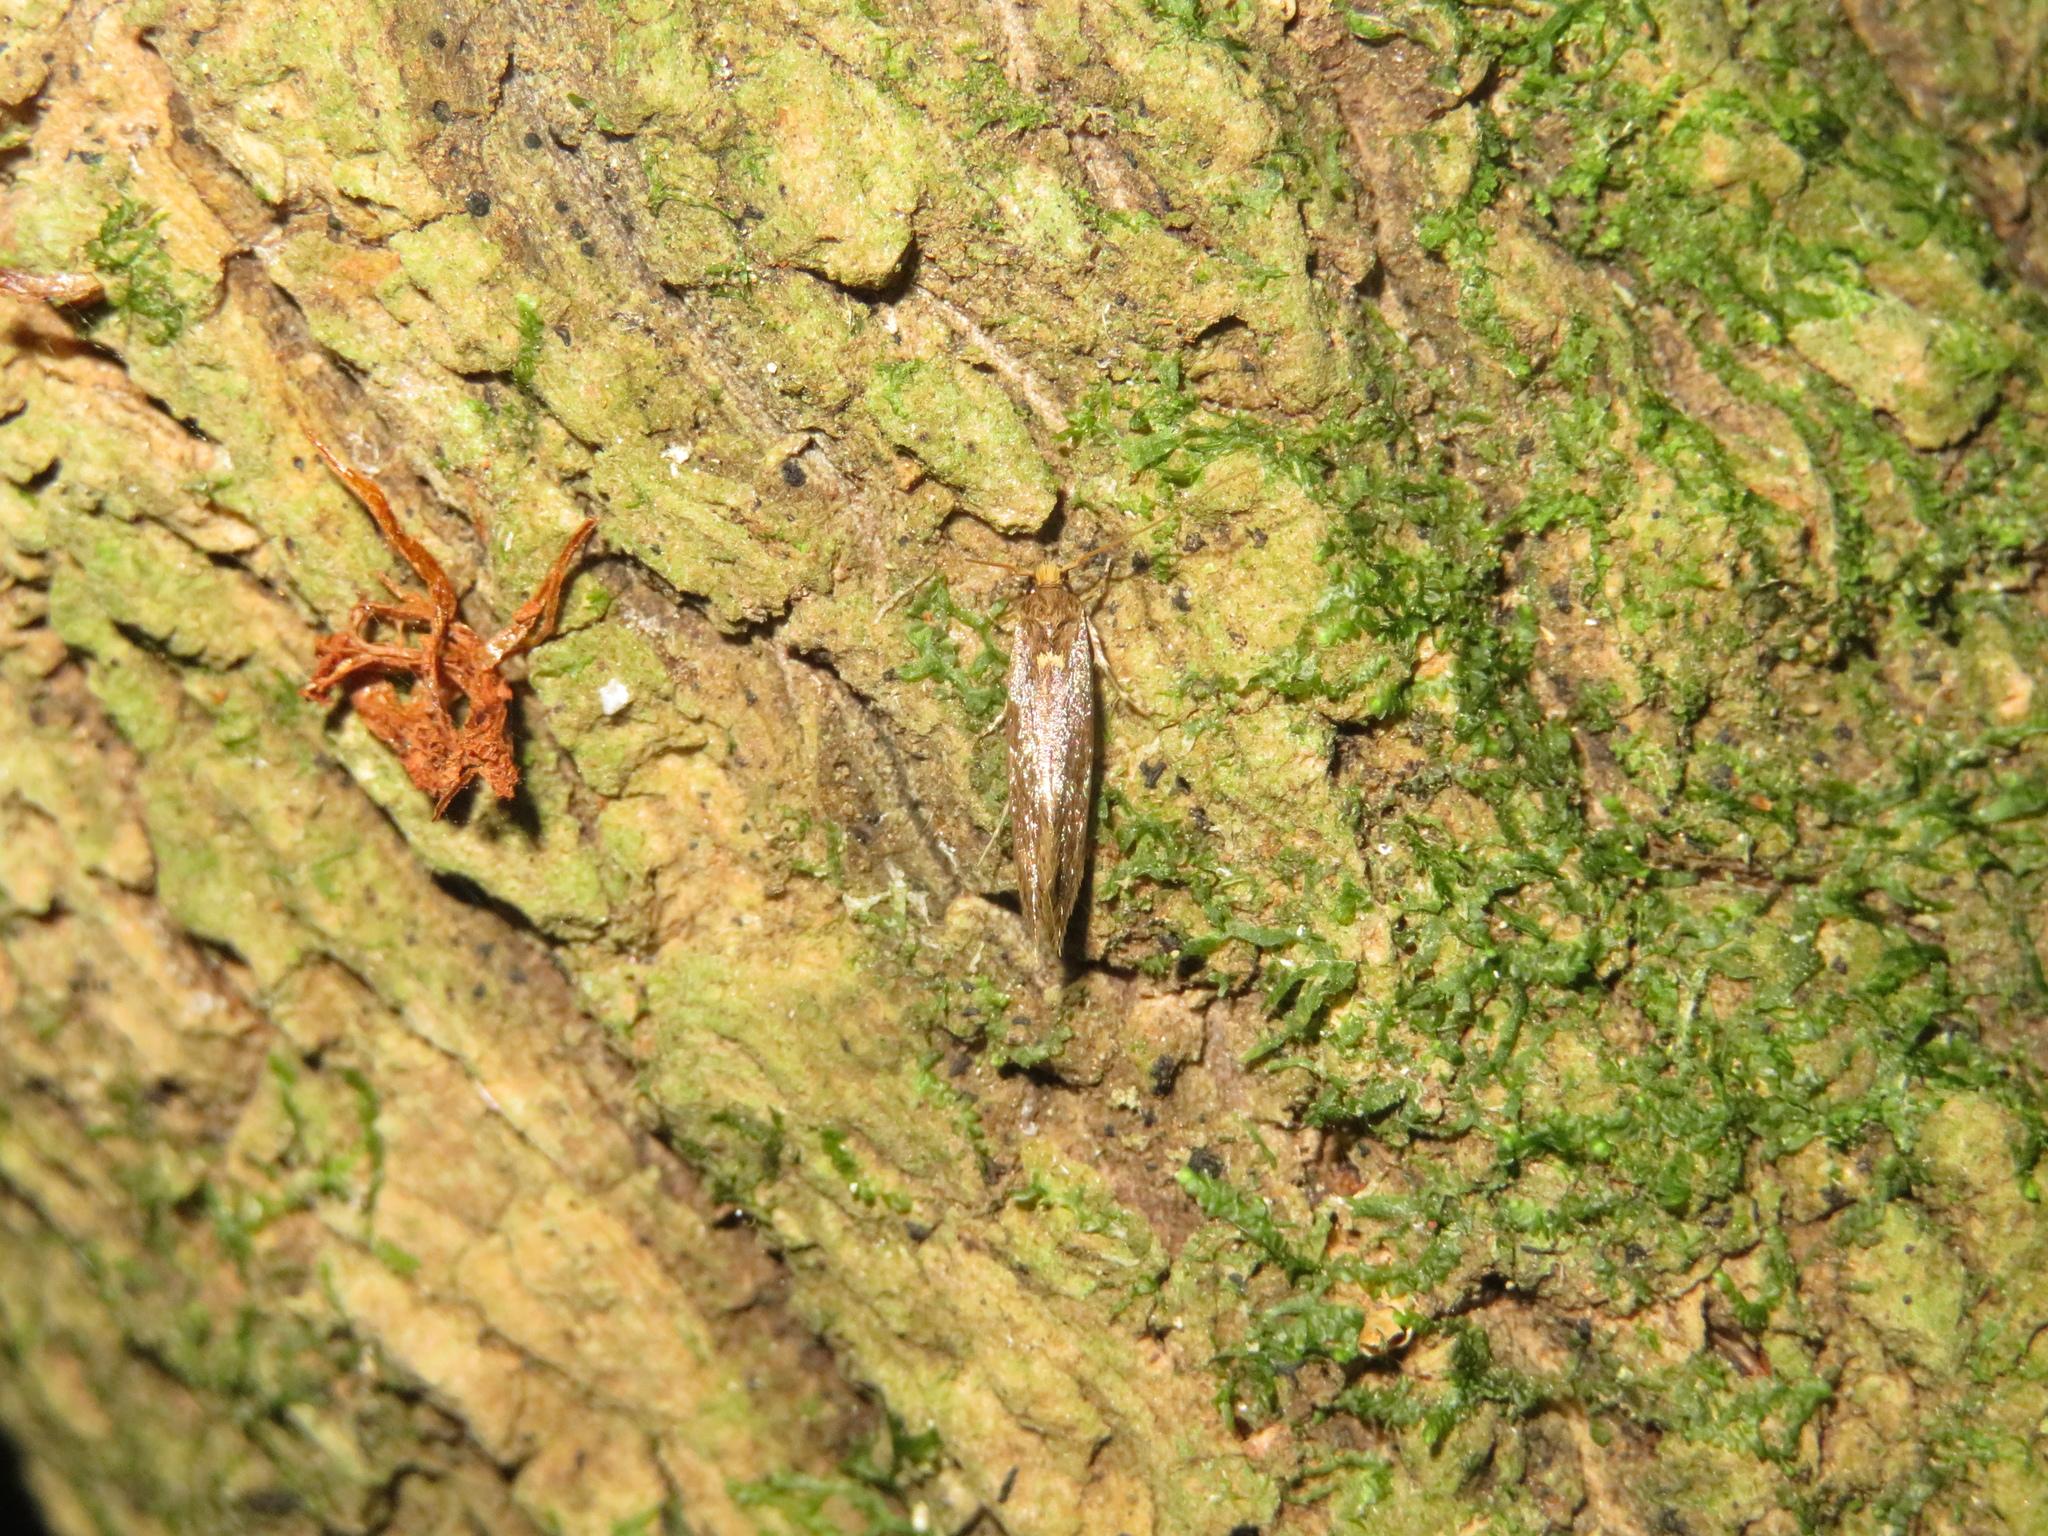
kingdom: Animalia
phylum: Arthropoda
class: Insecta
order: Lepidoptera
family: Tineidae
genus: Opogona
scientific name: Opogona omoscopa
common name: Moth
